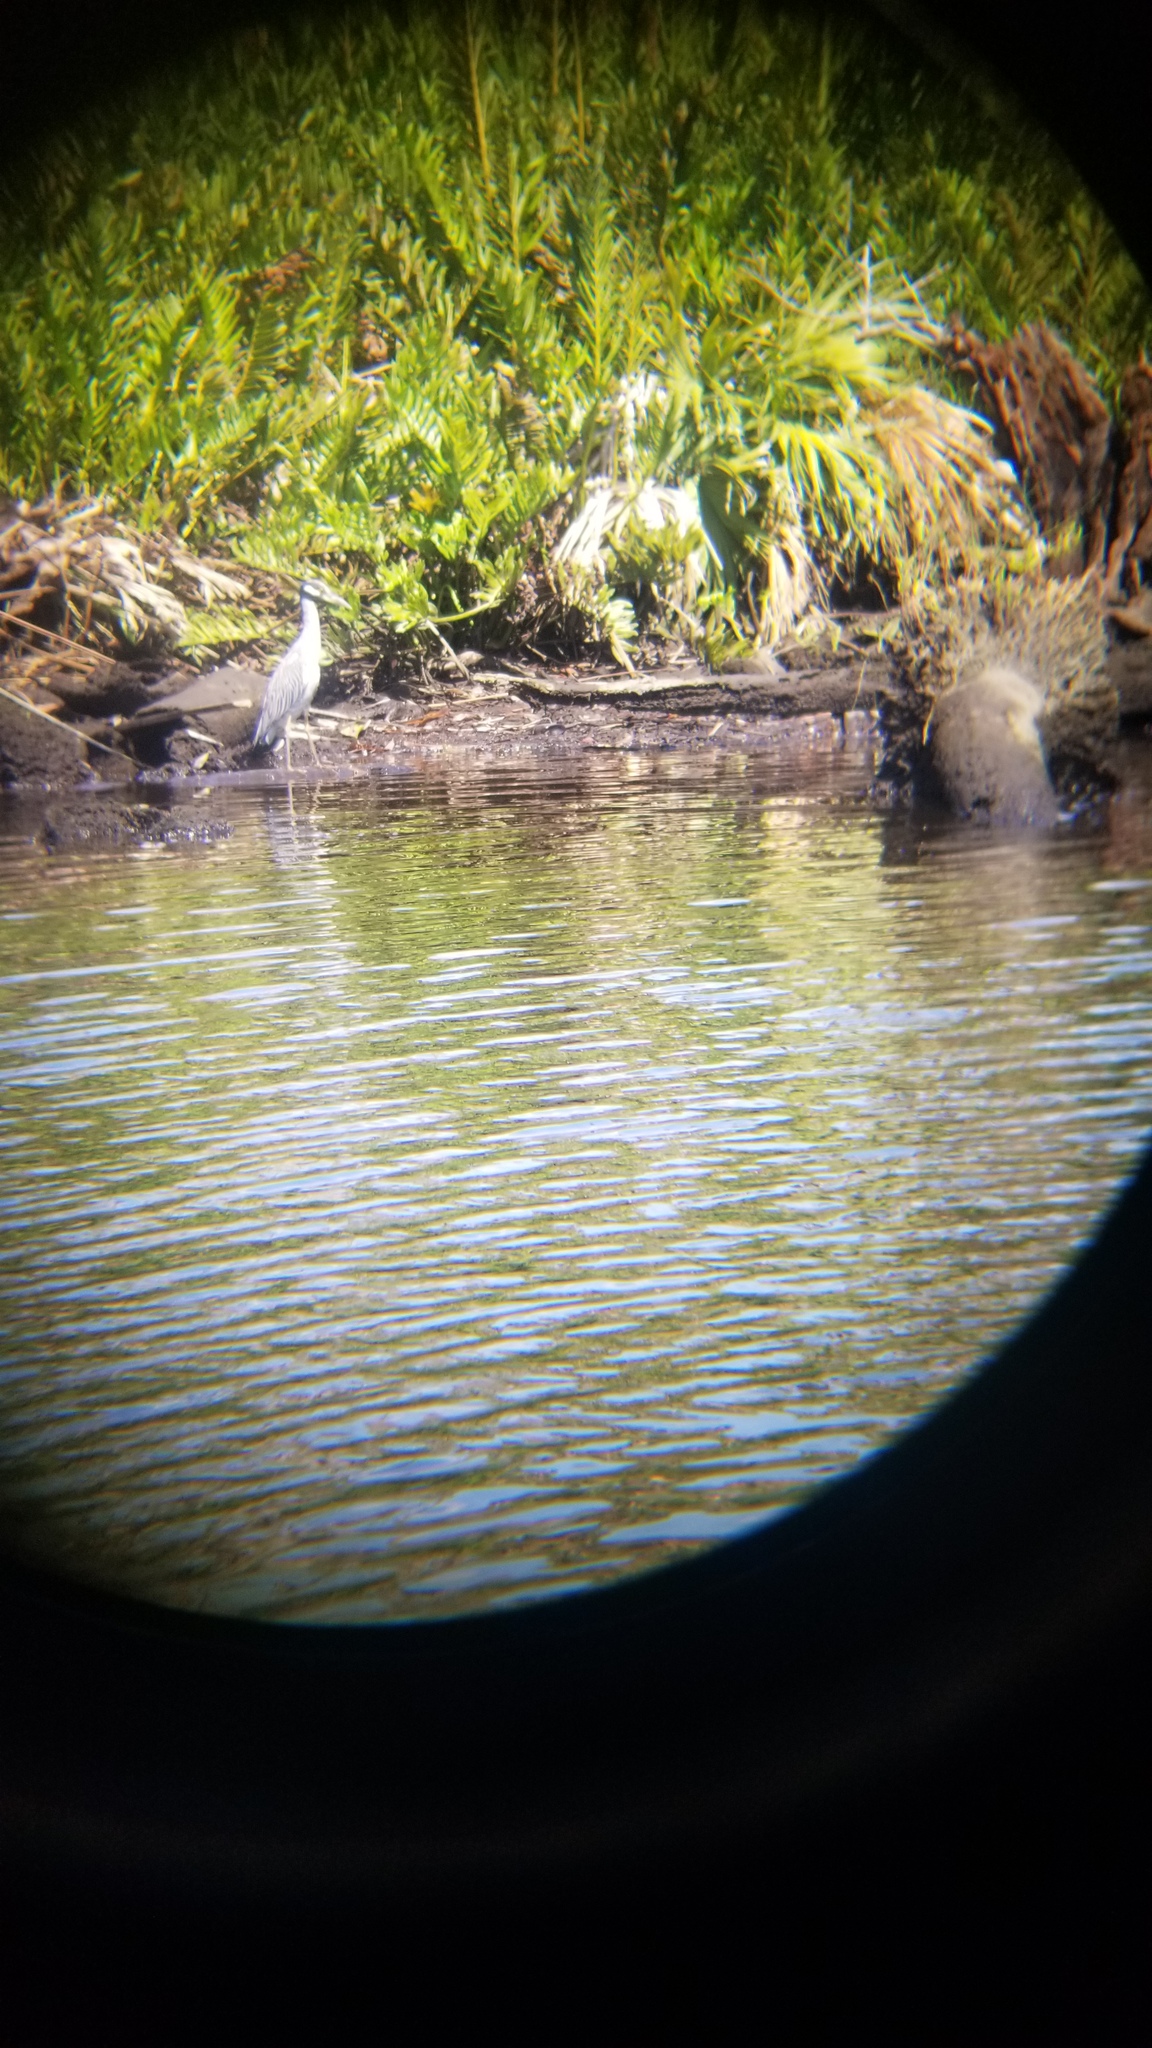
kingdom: Animalia
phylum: Chordata
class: Aves
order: Pelecaniformes
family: Ardeidae
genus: Nyctanassa
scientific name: Nyctanassa violacea
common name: Yellow-crowned night heron
